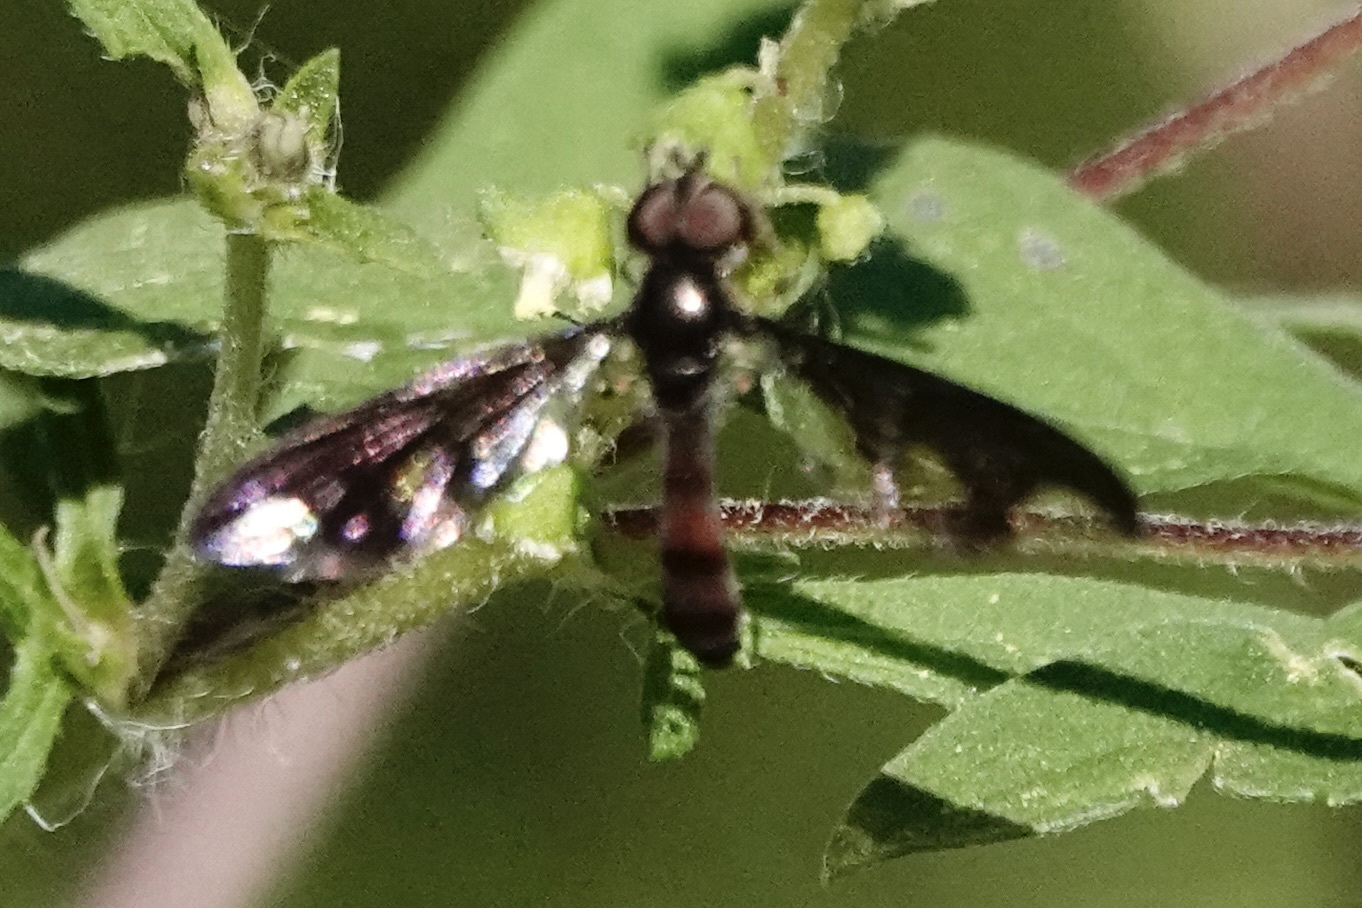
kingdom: Animalia
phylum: Arthropoda
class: Insecta
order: Diptera
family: Syrphidae
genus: Ocyptamus
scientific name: Ocyptamus fuscipennis
